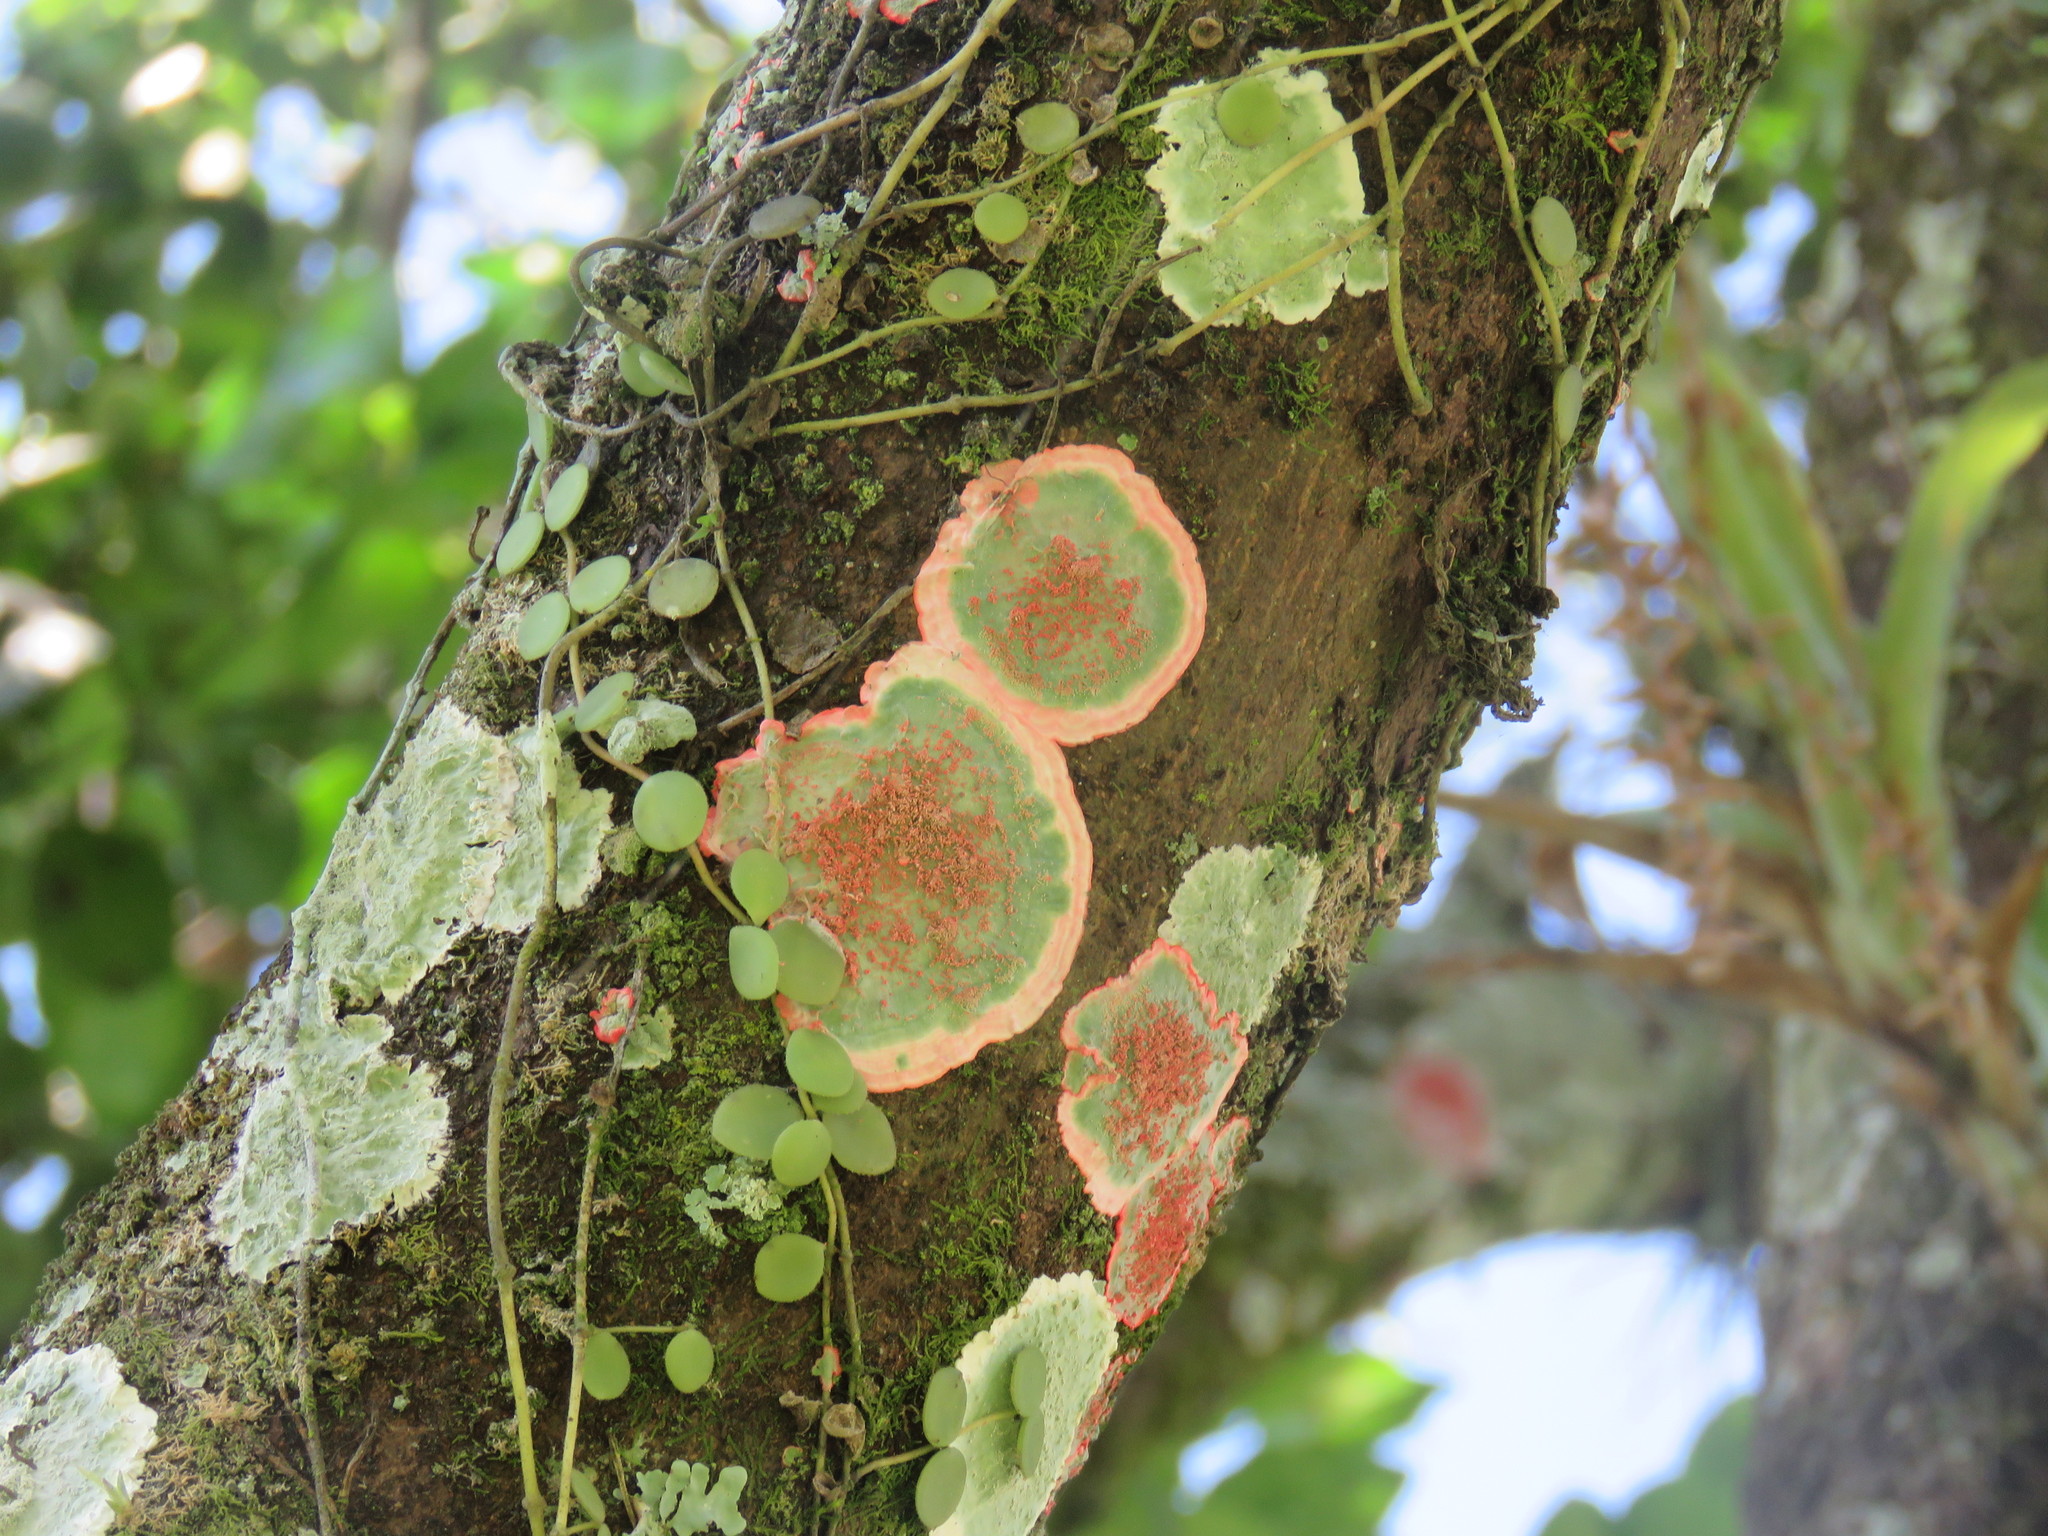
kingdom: Fungi
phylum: Ascomycota
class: Arthoniomycetes
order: Arthoniales
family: Arthoniaceae
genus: Herpothallon
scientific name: Herpothallon rubrocinctum
